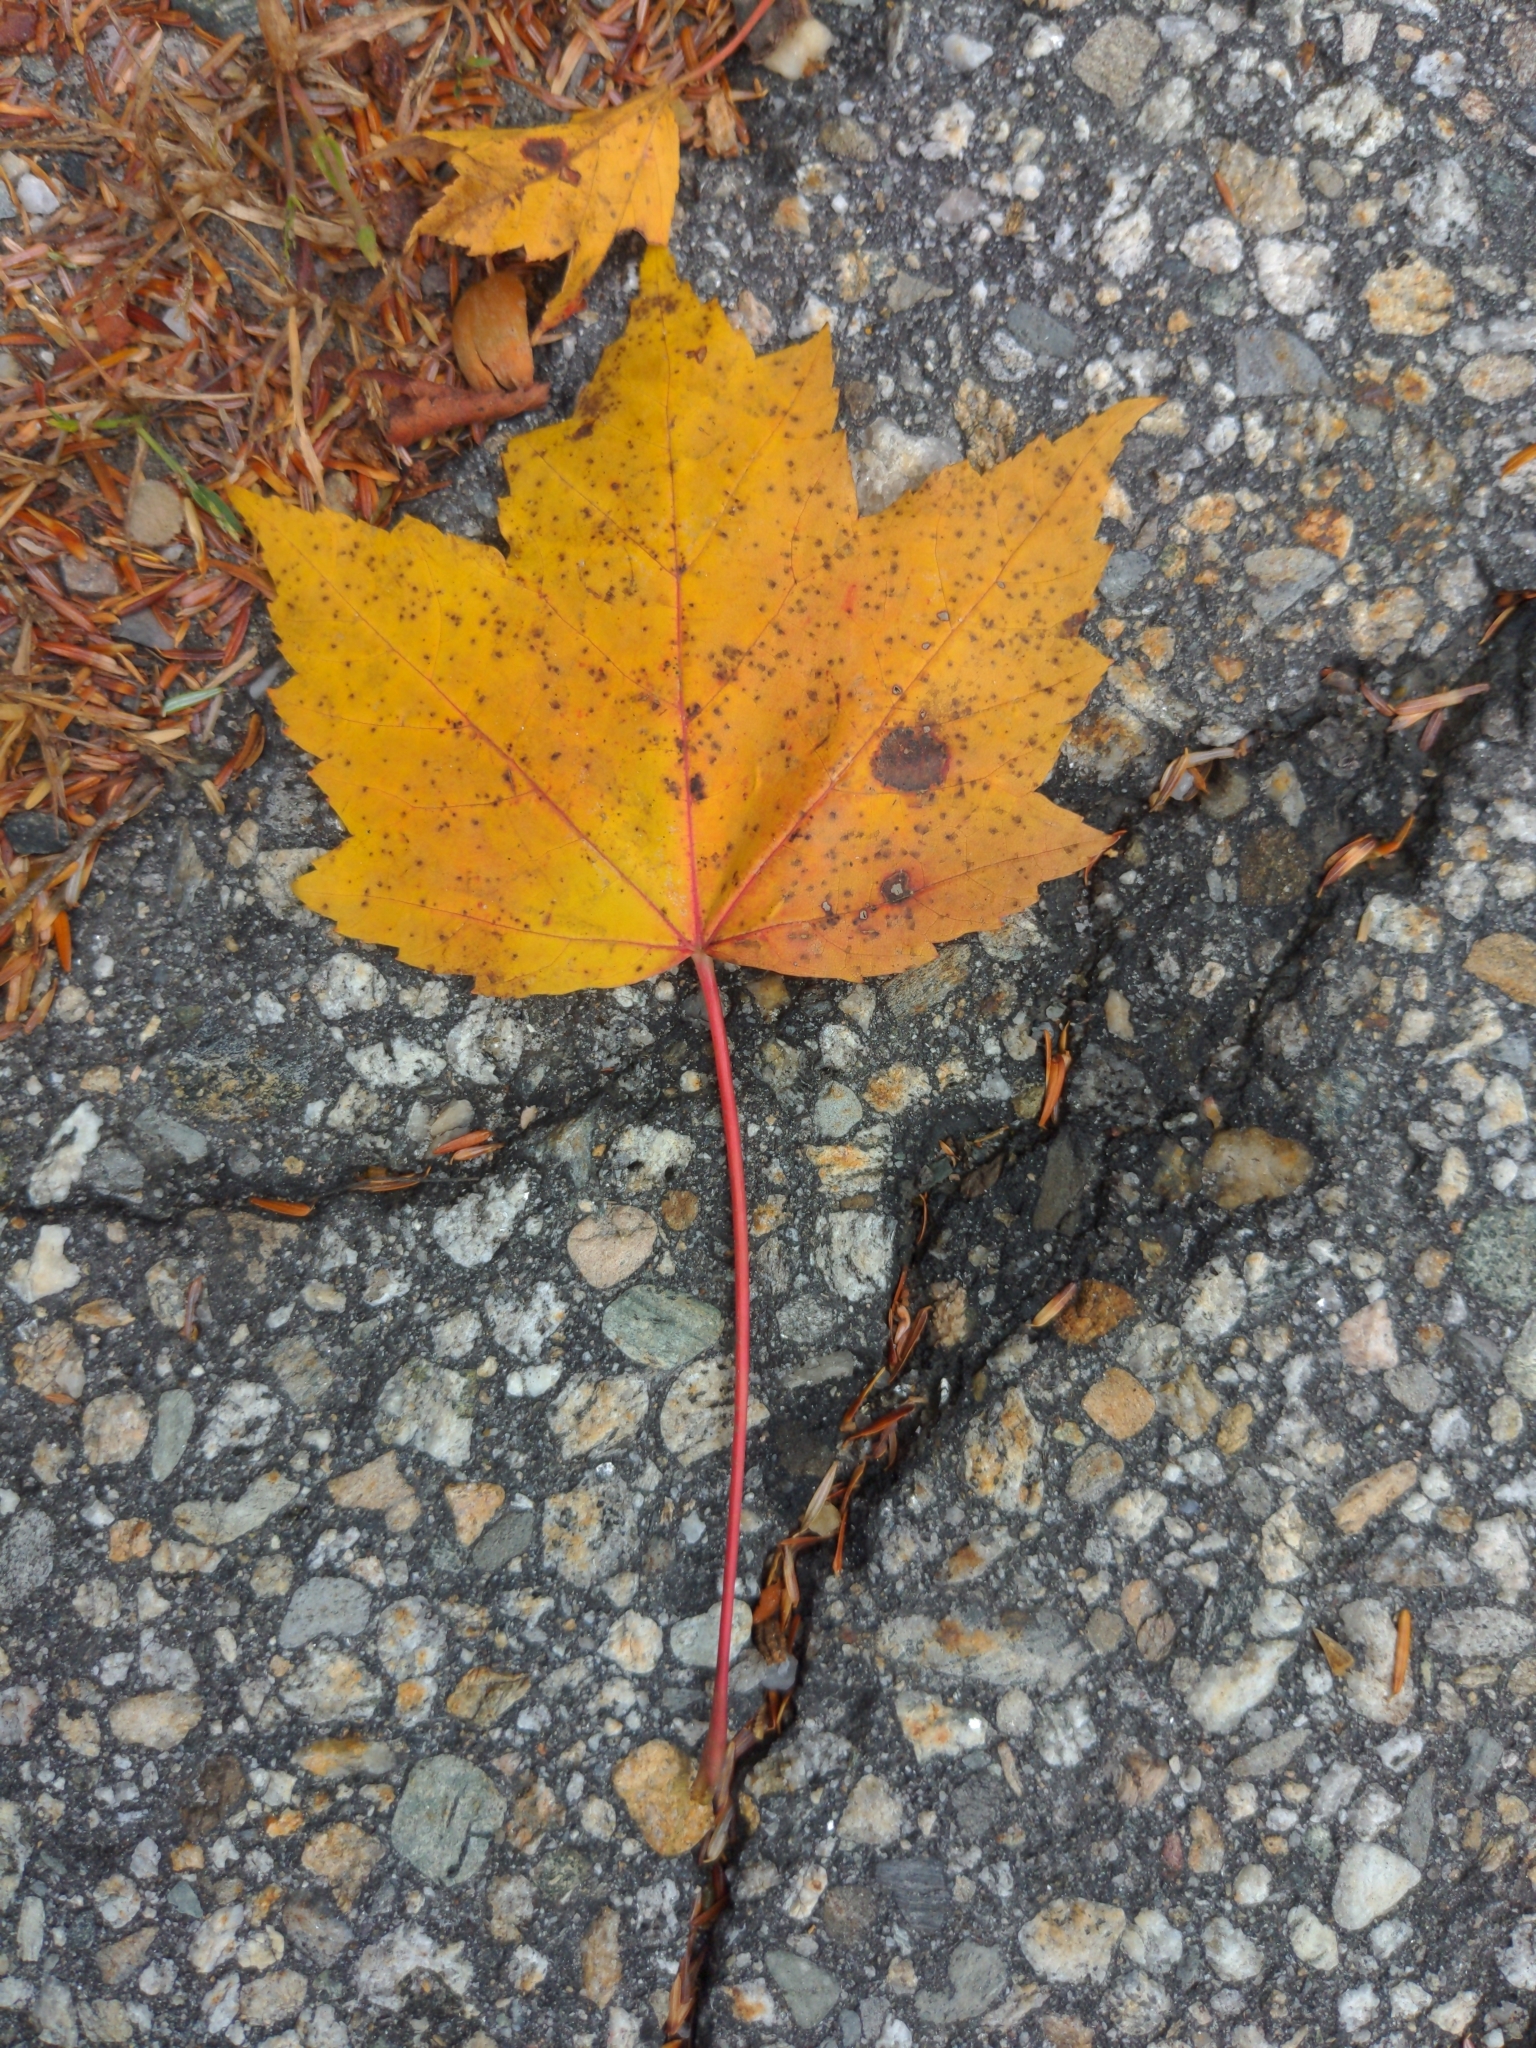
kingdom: Plantae
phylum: Tracheophyta
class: Magnoliopsida
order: Sapindales
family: Sapindaceae
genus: Acer
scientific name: Acer rubrum
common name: Red maple
